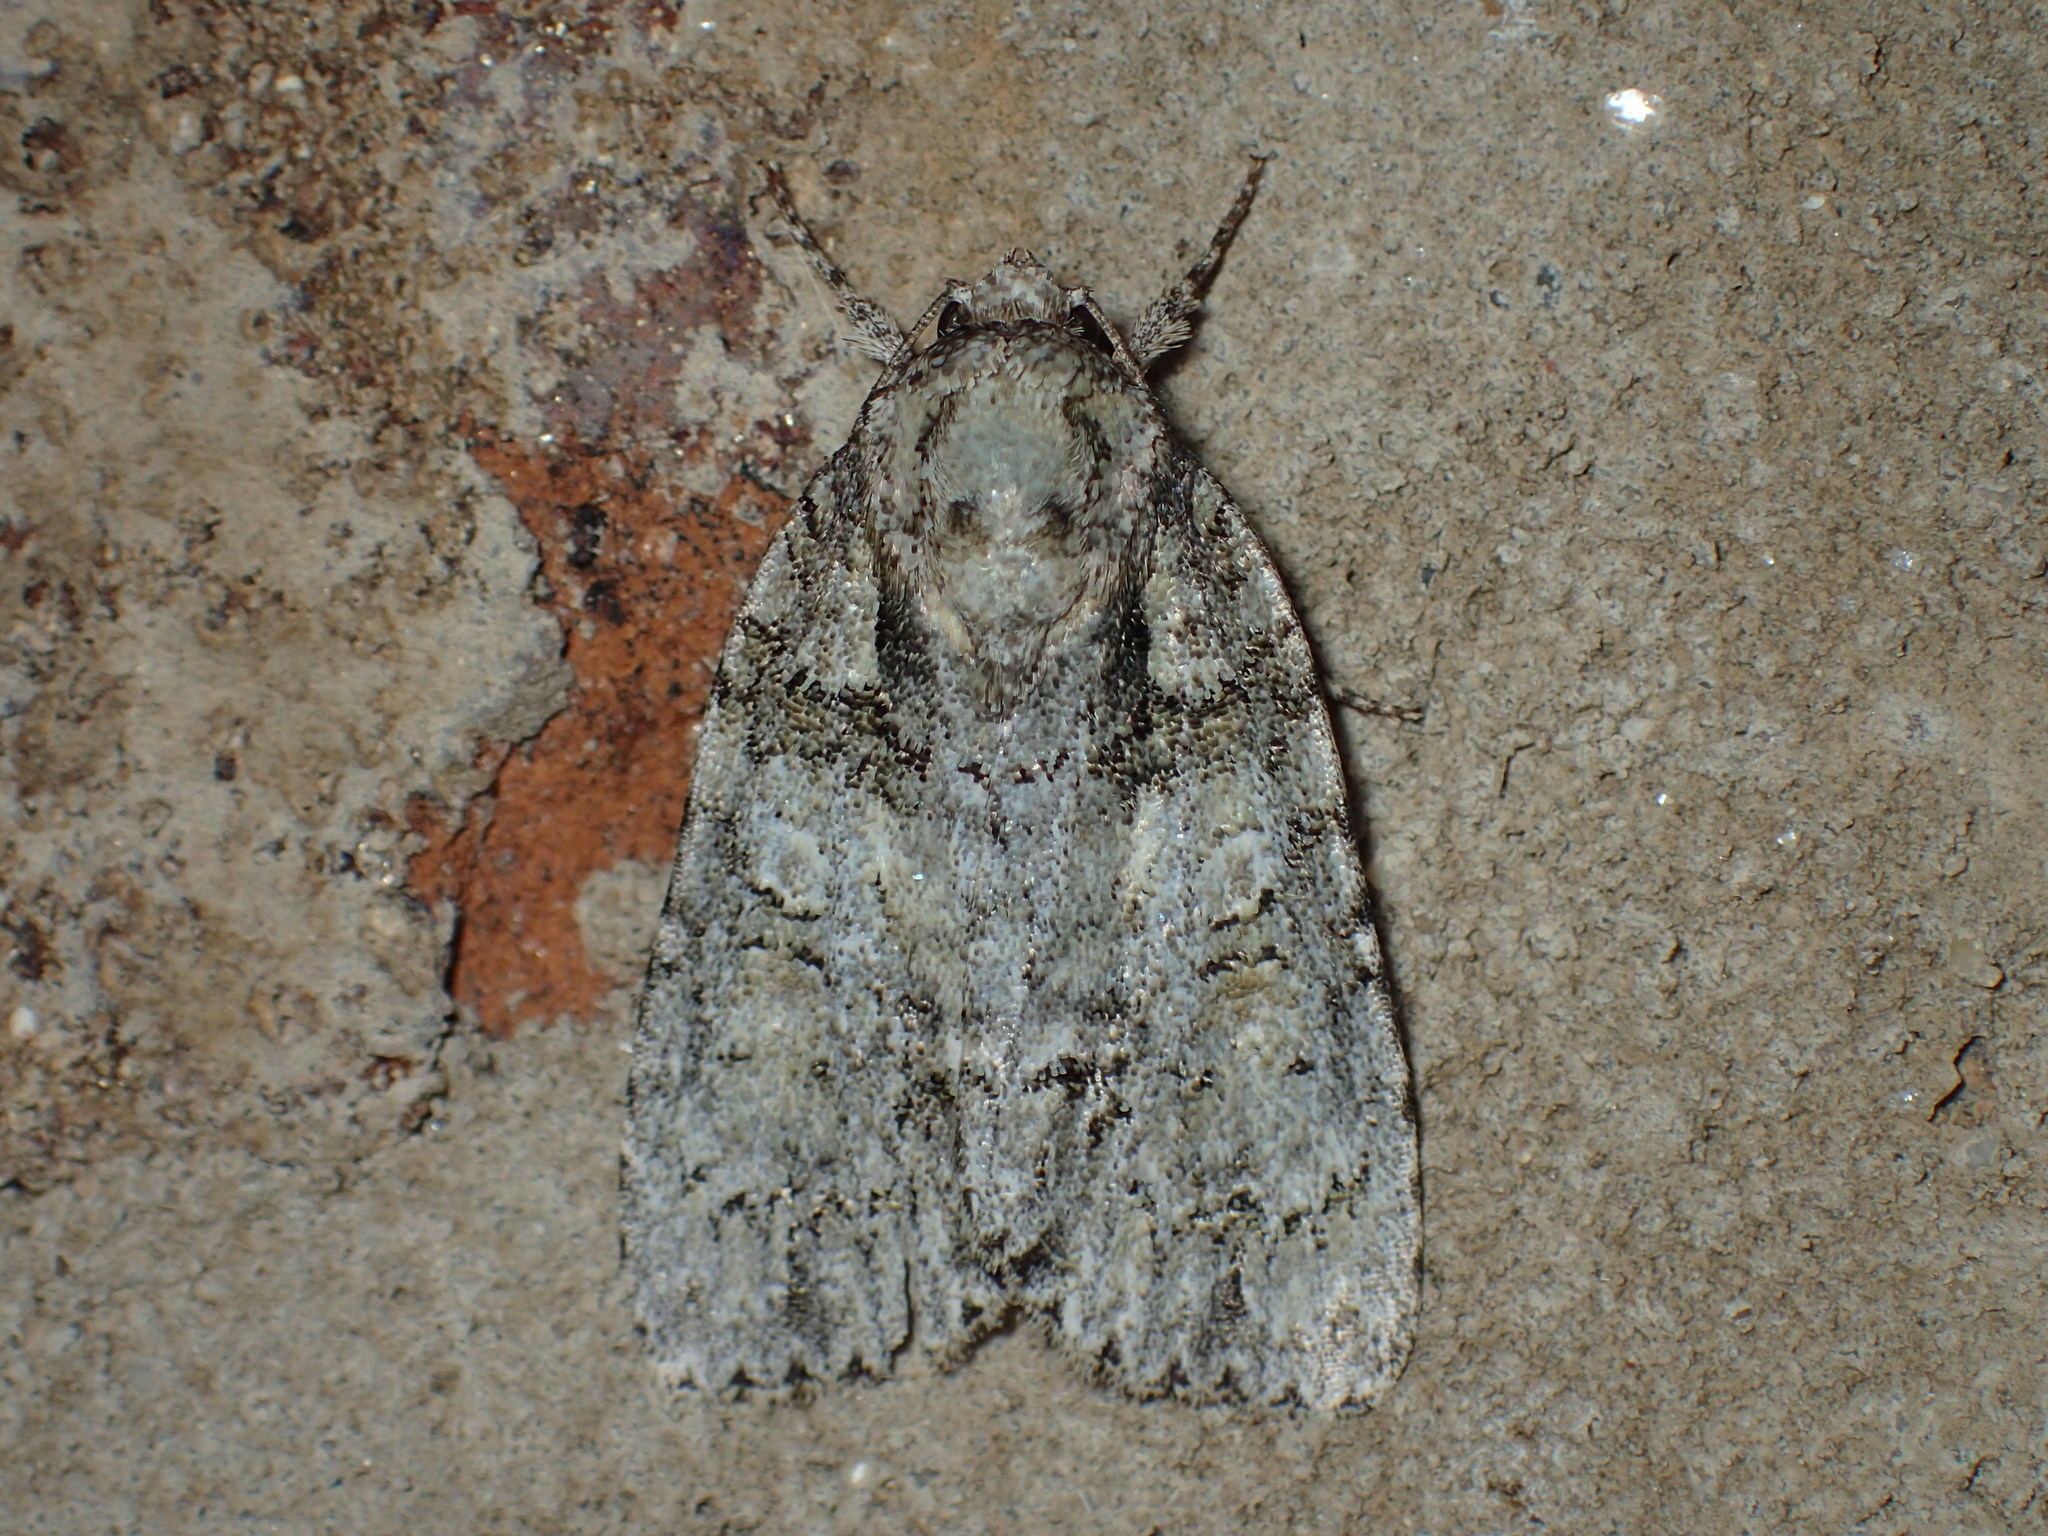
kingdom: Animalia
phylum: Arthropoda
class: Insecta
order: Lepidoptera
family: Noctuidae
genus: Acronicta
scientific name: Acronicta ovata
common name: Epauleted oak dagger
